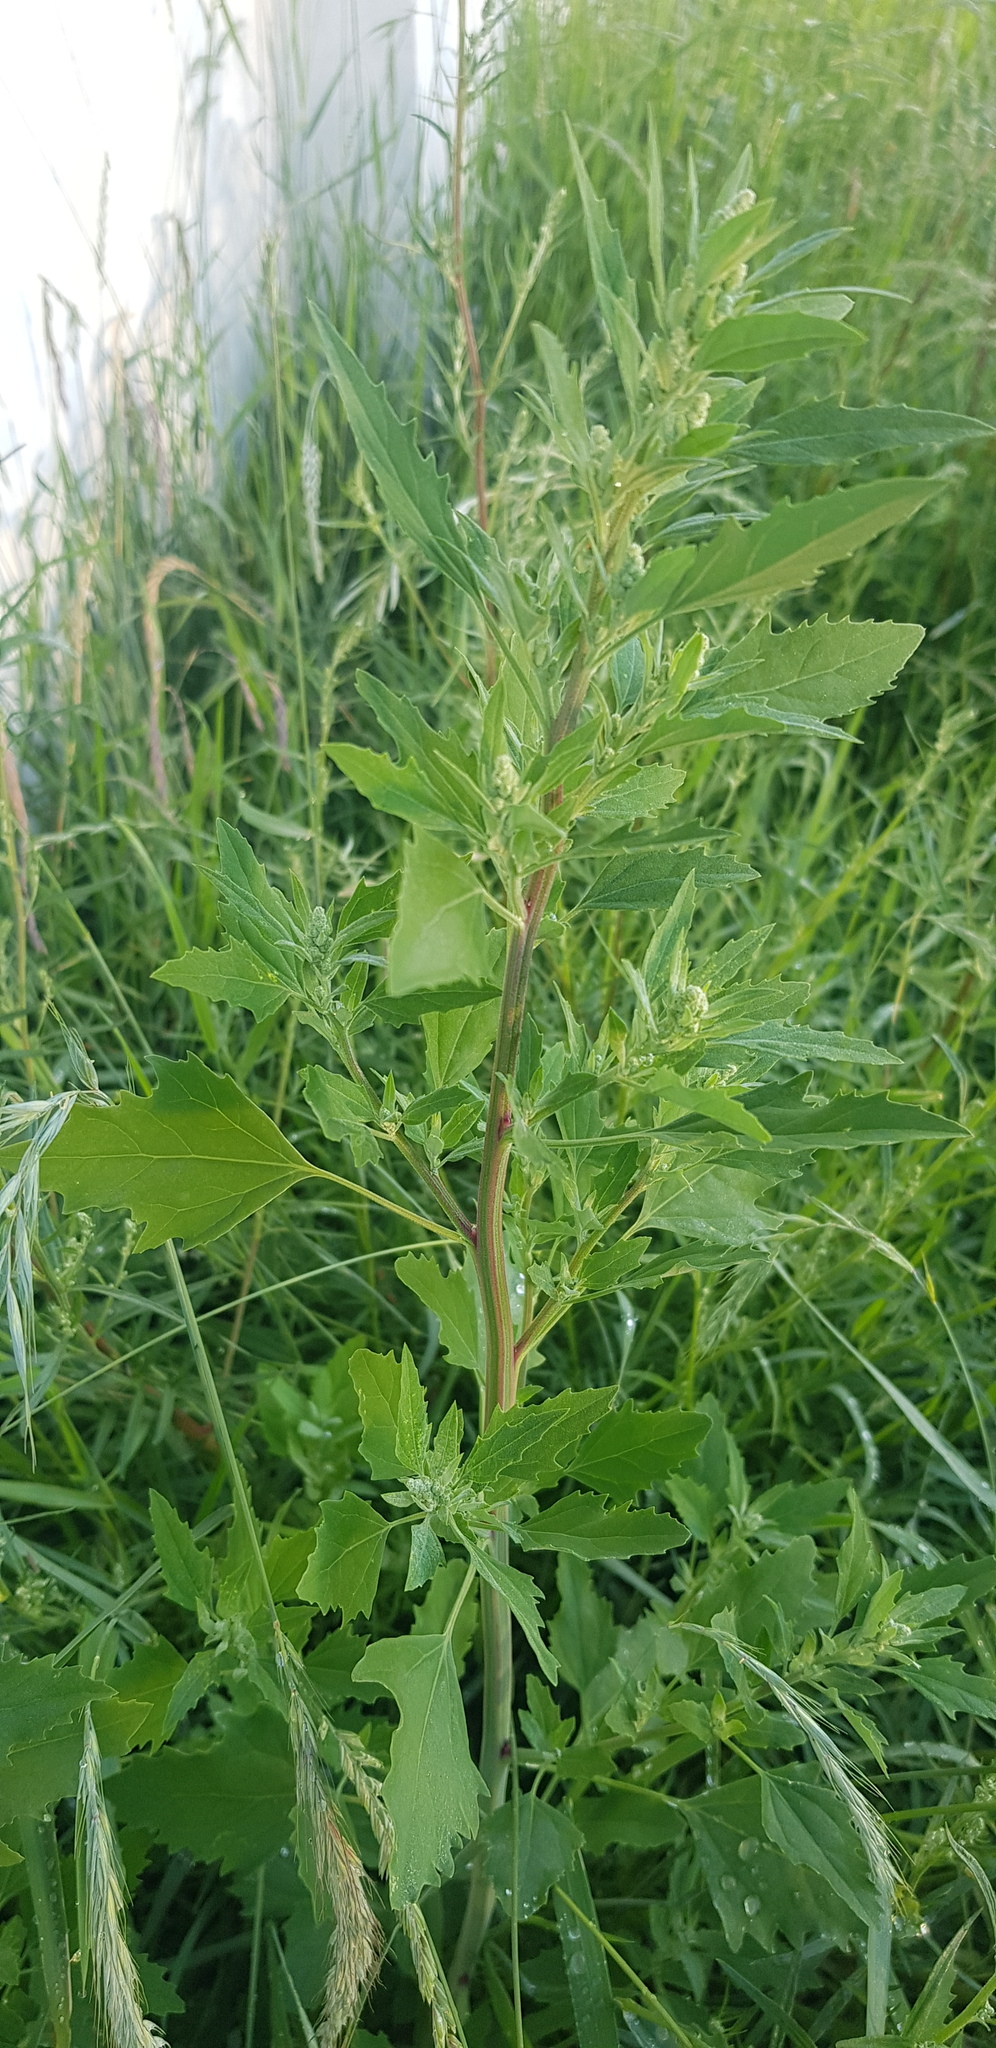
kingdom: Plantae
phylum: Tracheophyta
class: Magnoliopsida
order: Caryophyllales
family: Amaranthaceae
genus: Chenopodium
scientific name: Chenopodium album
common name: Fat-hen
